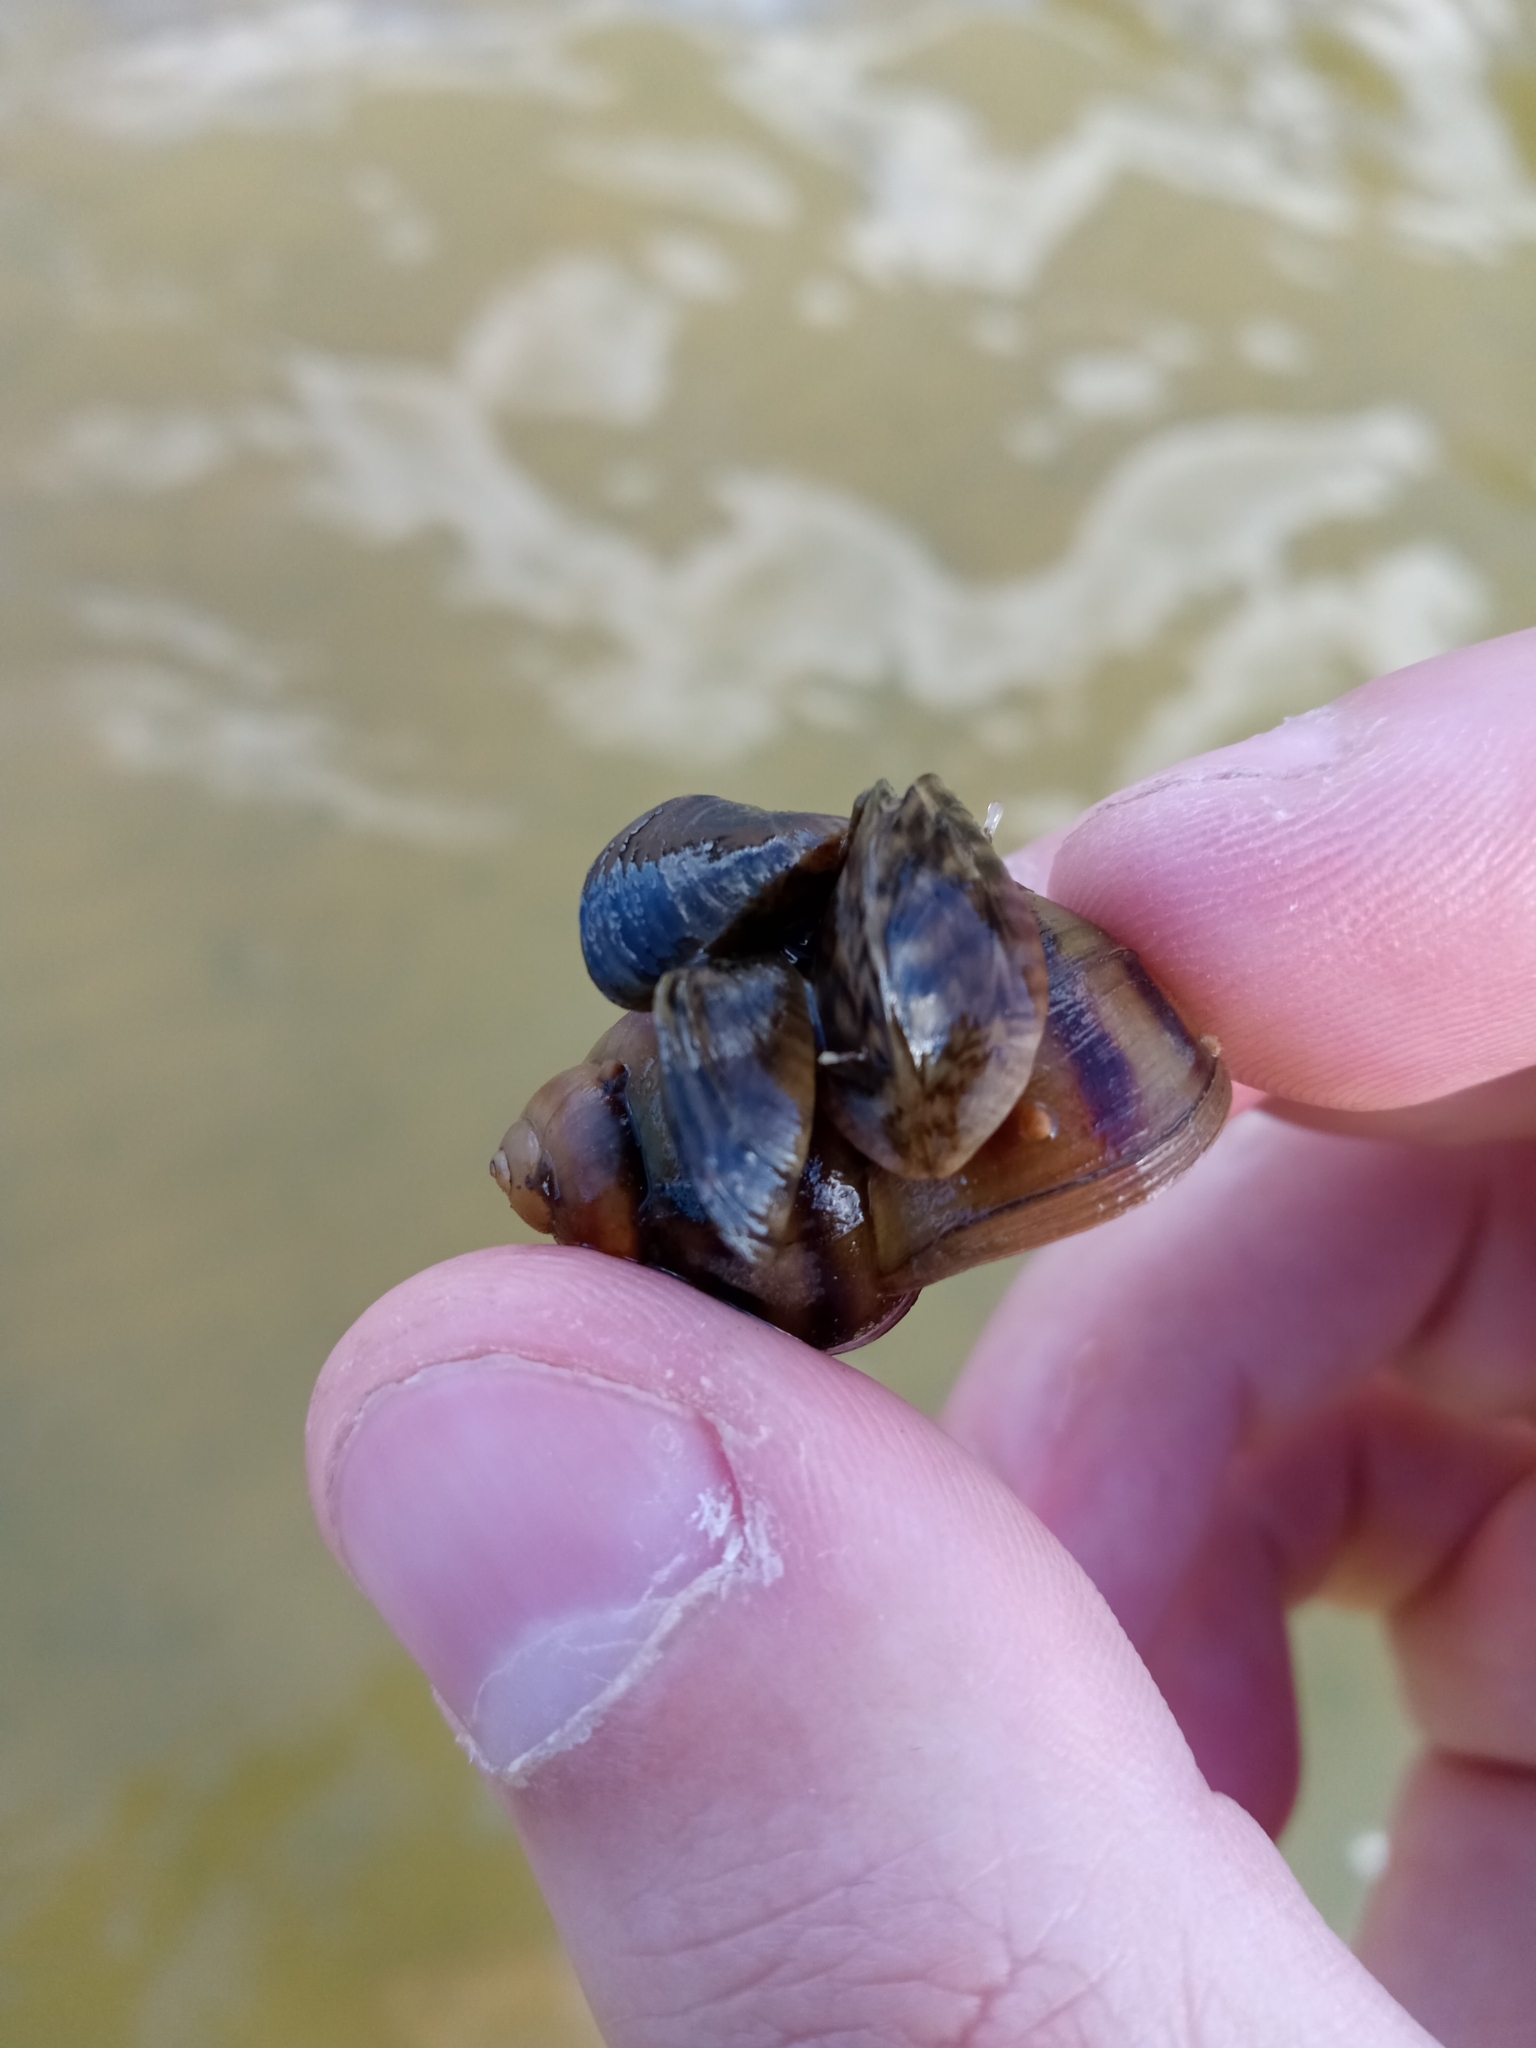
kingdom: Animalia
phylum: Mollusca
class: Bivalvia
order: Myida
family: Dreissenidae
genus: Dreissena
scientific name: Dreissena polymorpha
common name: Zebra mussel
